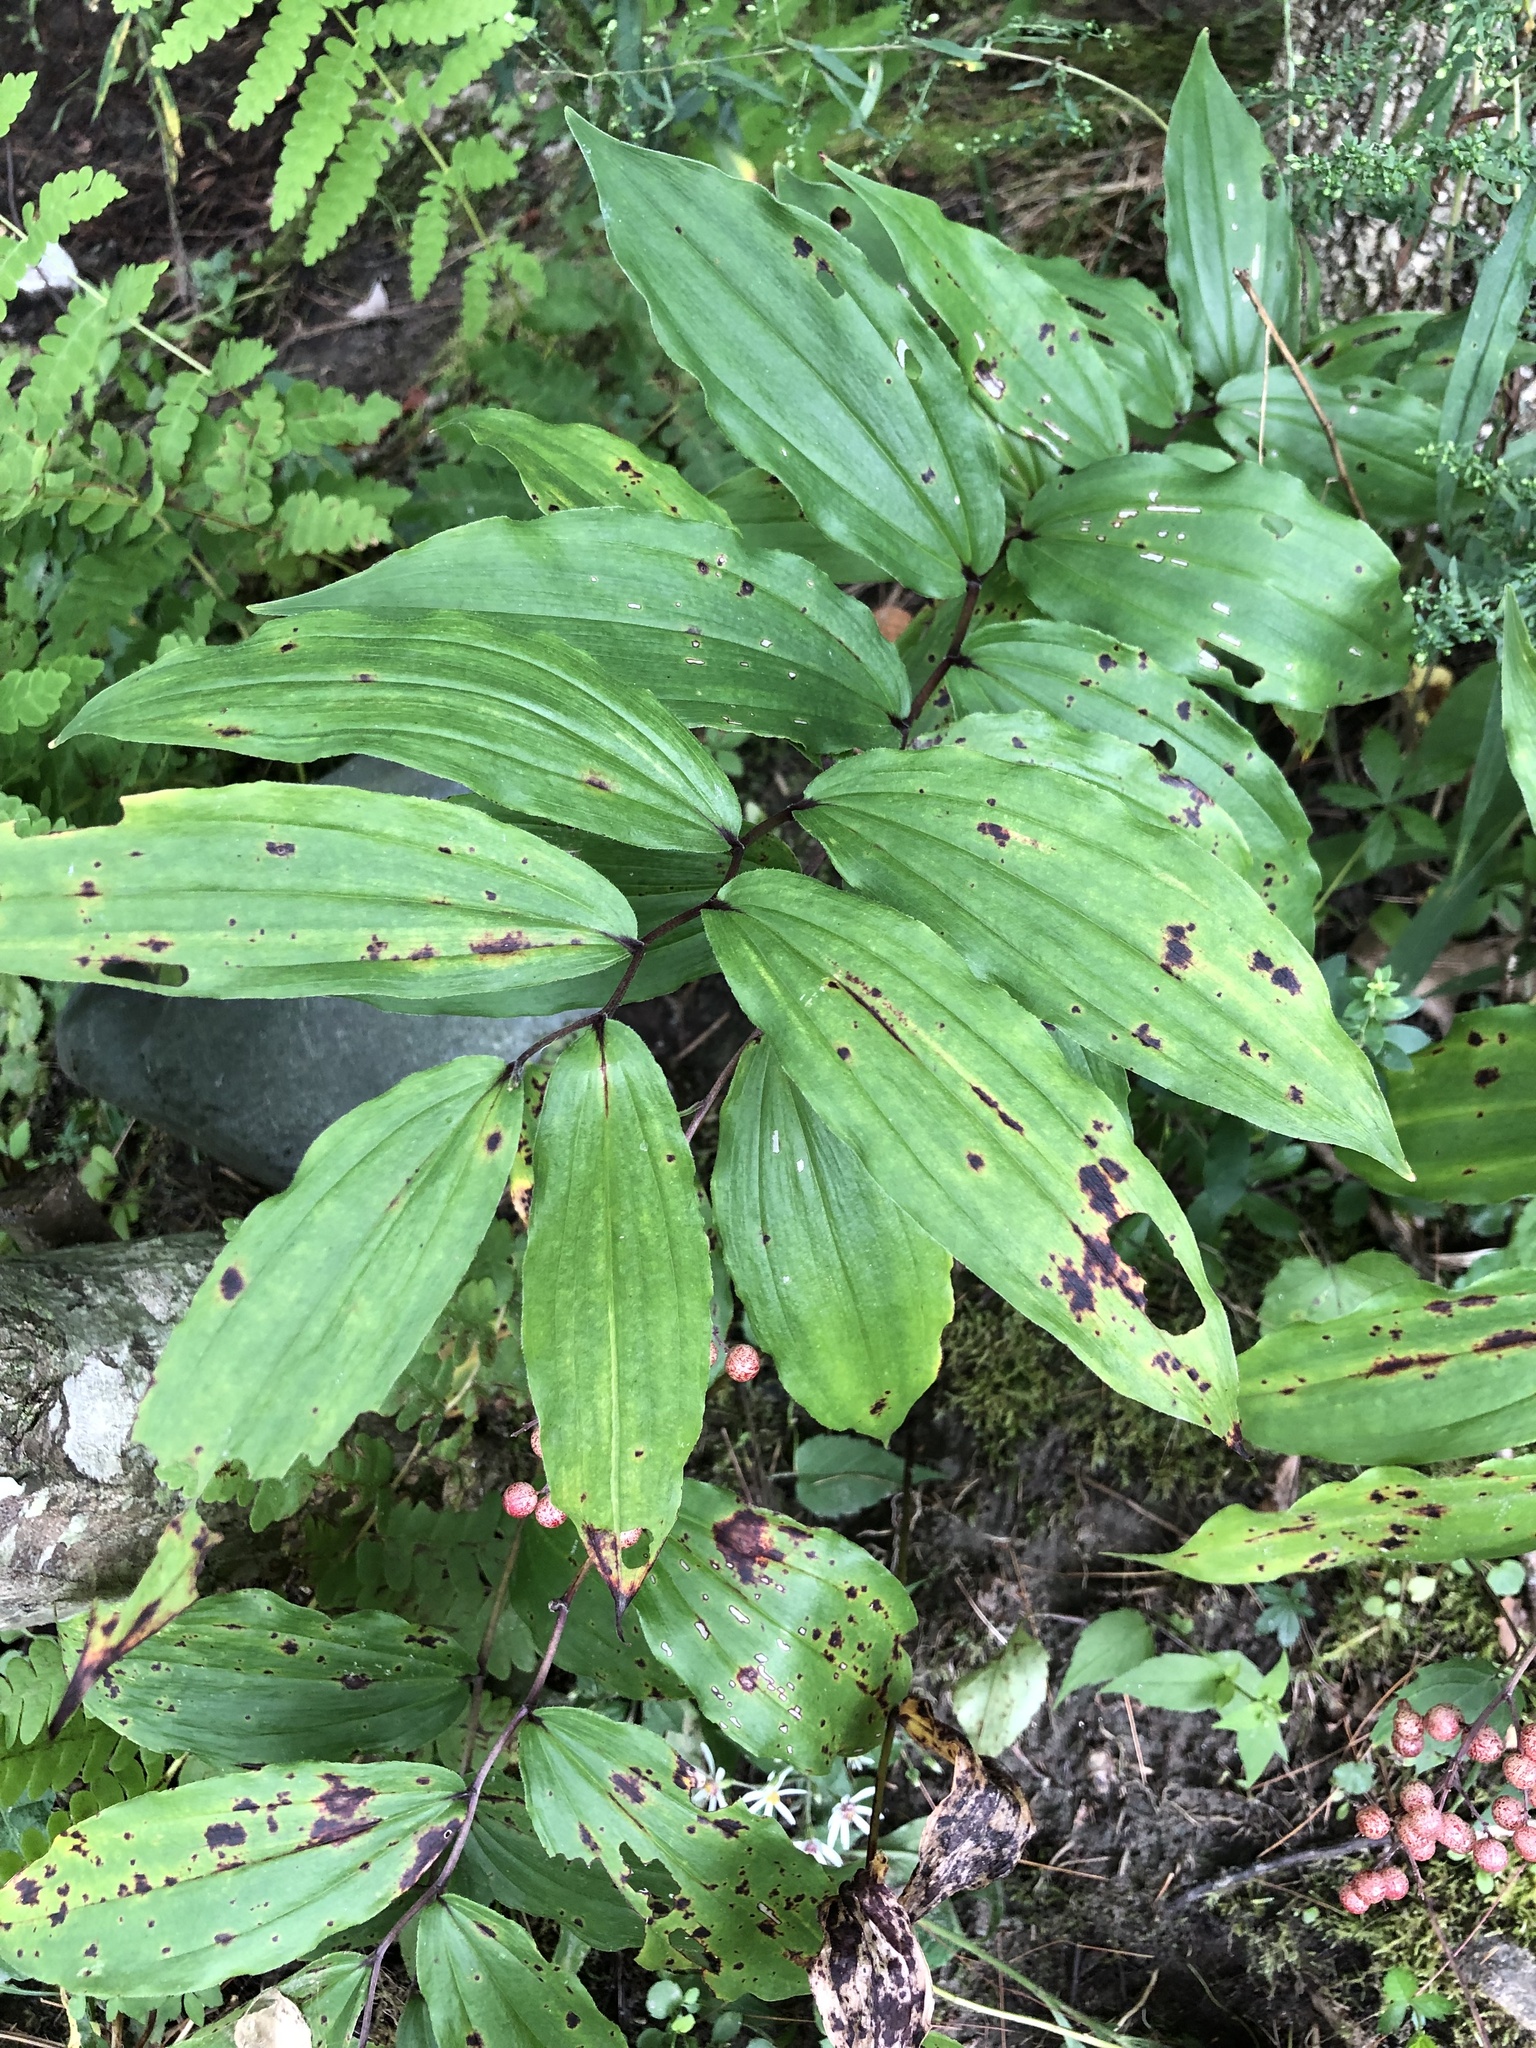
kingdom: Plantae
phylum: Tracheophyta
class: Liliopsida
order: Asparagales
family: Asparagaceae
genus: Maianthemum
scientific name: Maianthemum racemosum
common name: False spikenard
